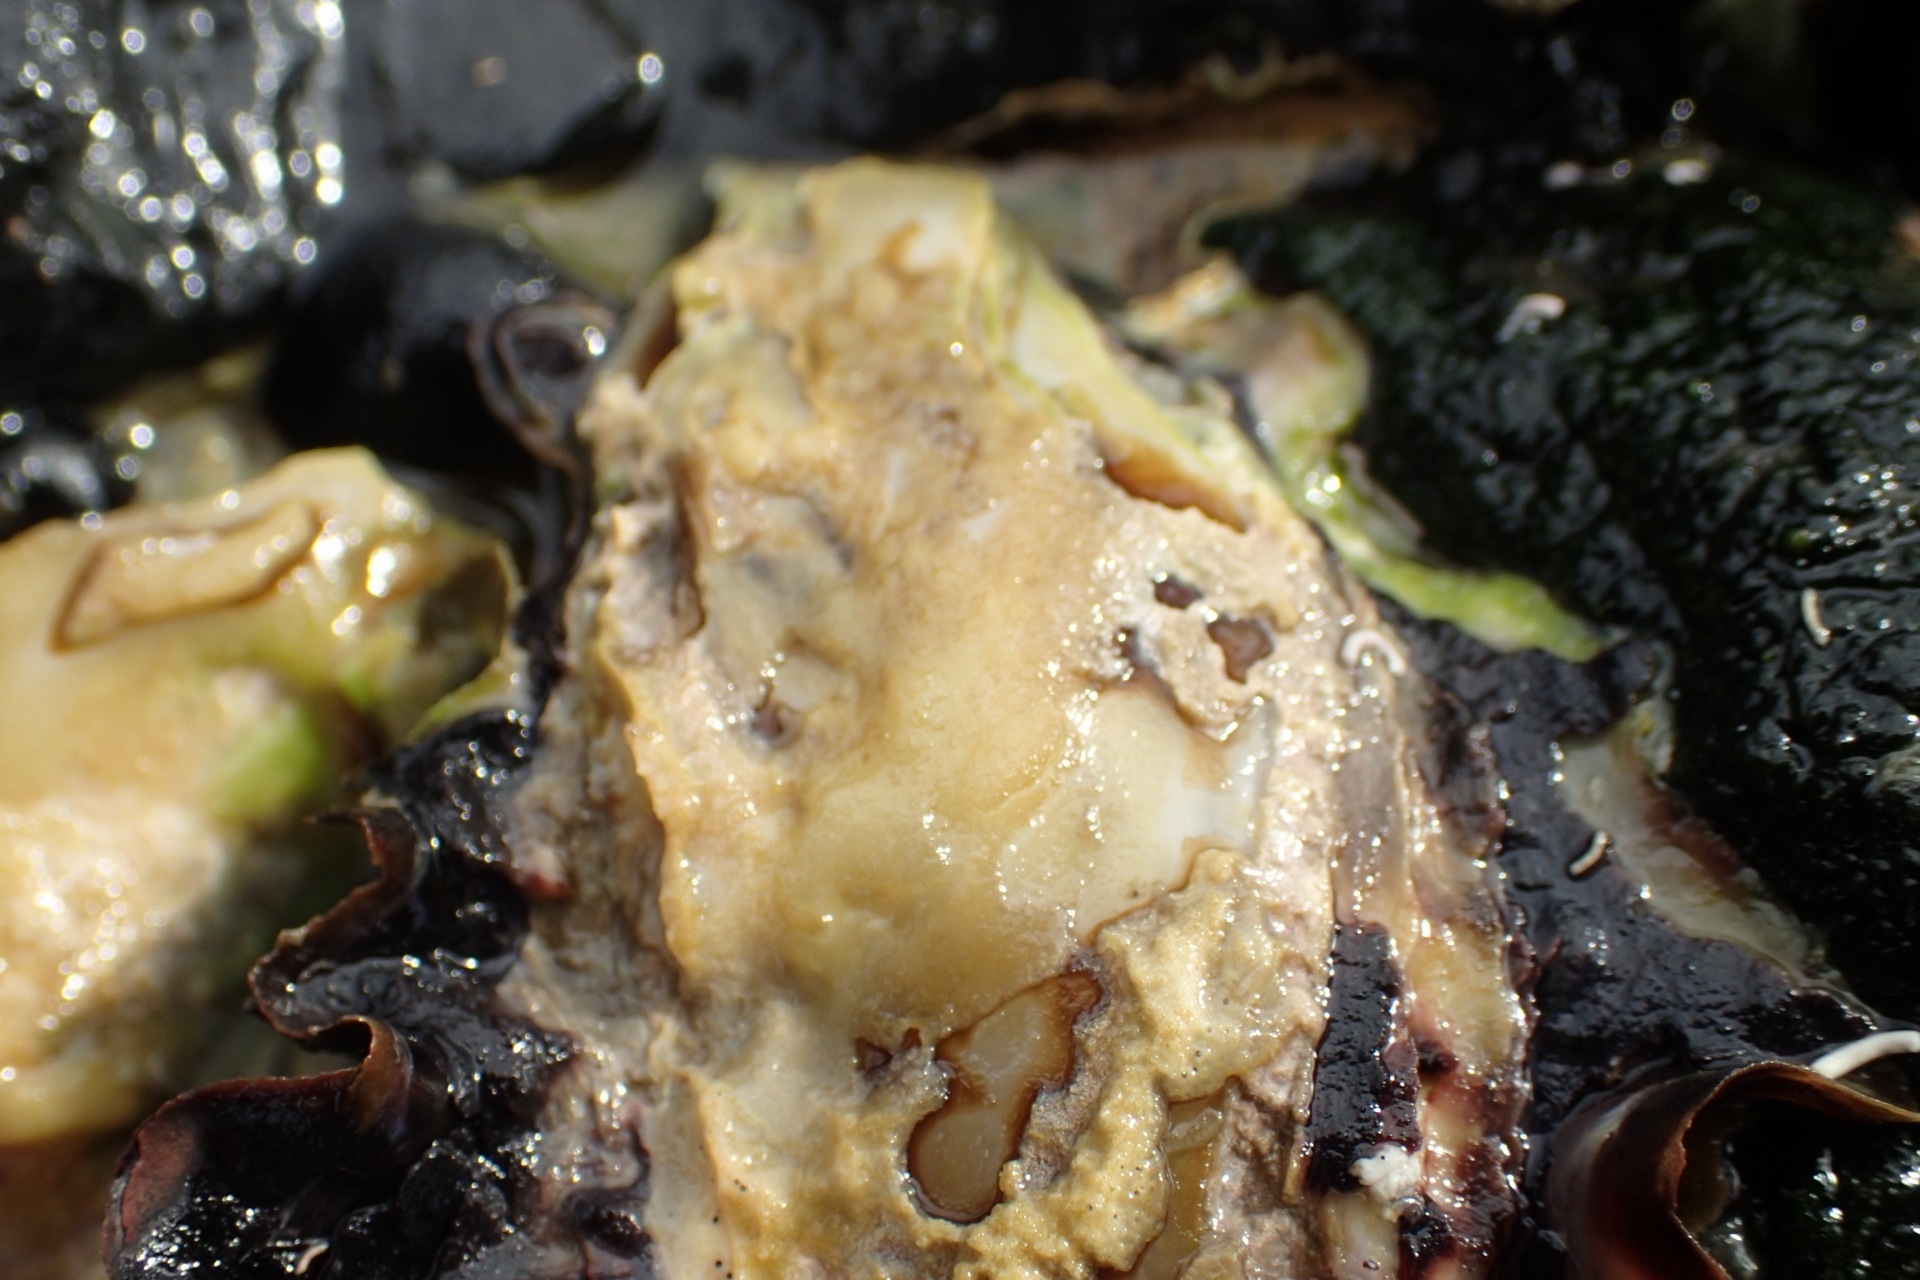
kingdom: Animalia
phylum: Mollusca
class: Bivalvia
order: Ostreida
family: Ostreidae
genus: Saccostrea
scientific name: Saccostrea glomerata
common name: Sydney cupped oyster
